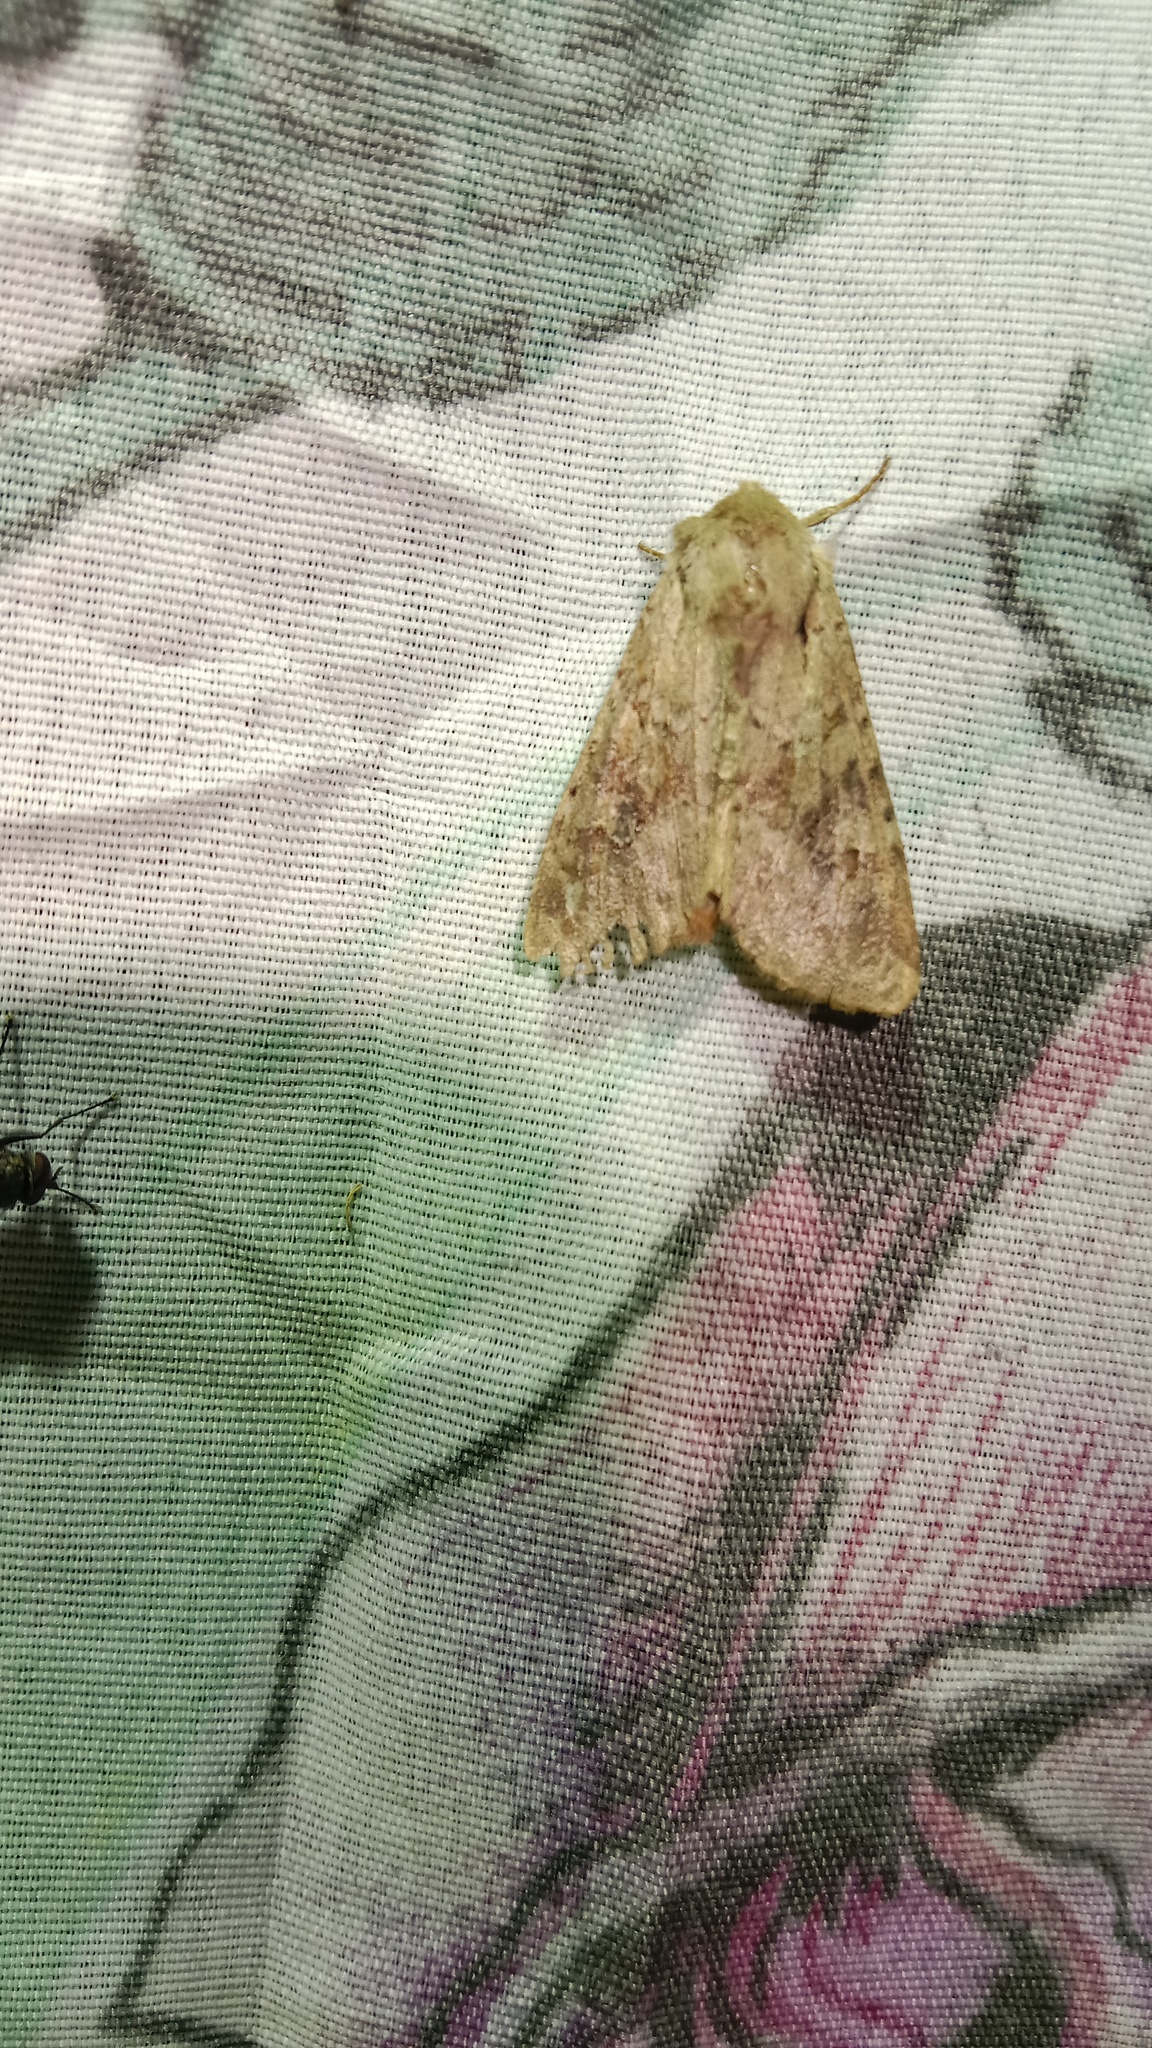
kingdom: Animalia
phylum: Arthropoda
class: Insecta
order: Lepidoptera
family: Noctuidae
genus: Apamea
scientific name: Apamea sordens
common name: Rustic shoulder-knot
